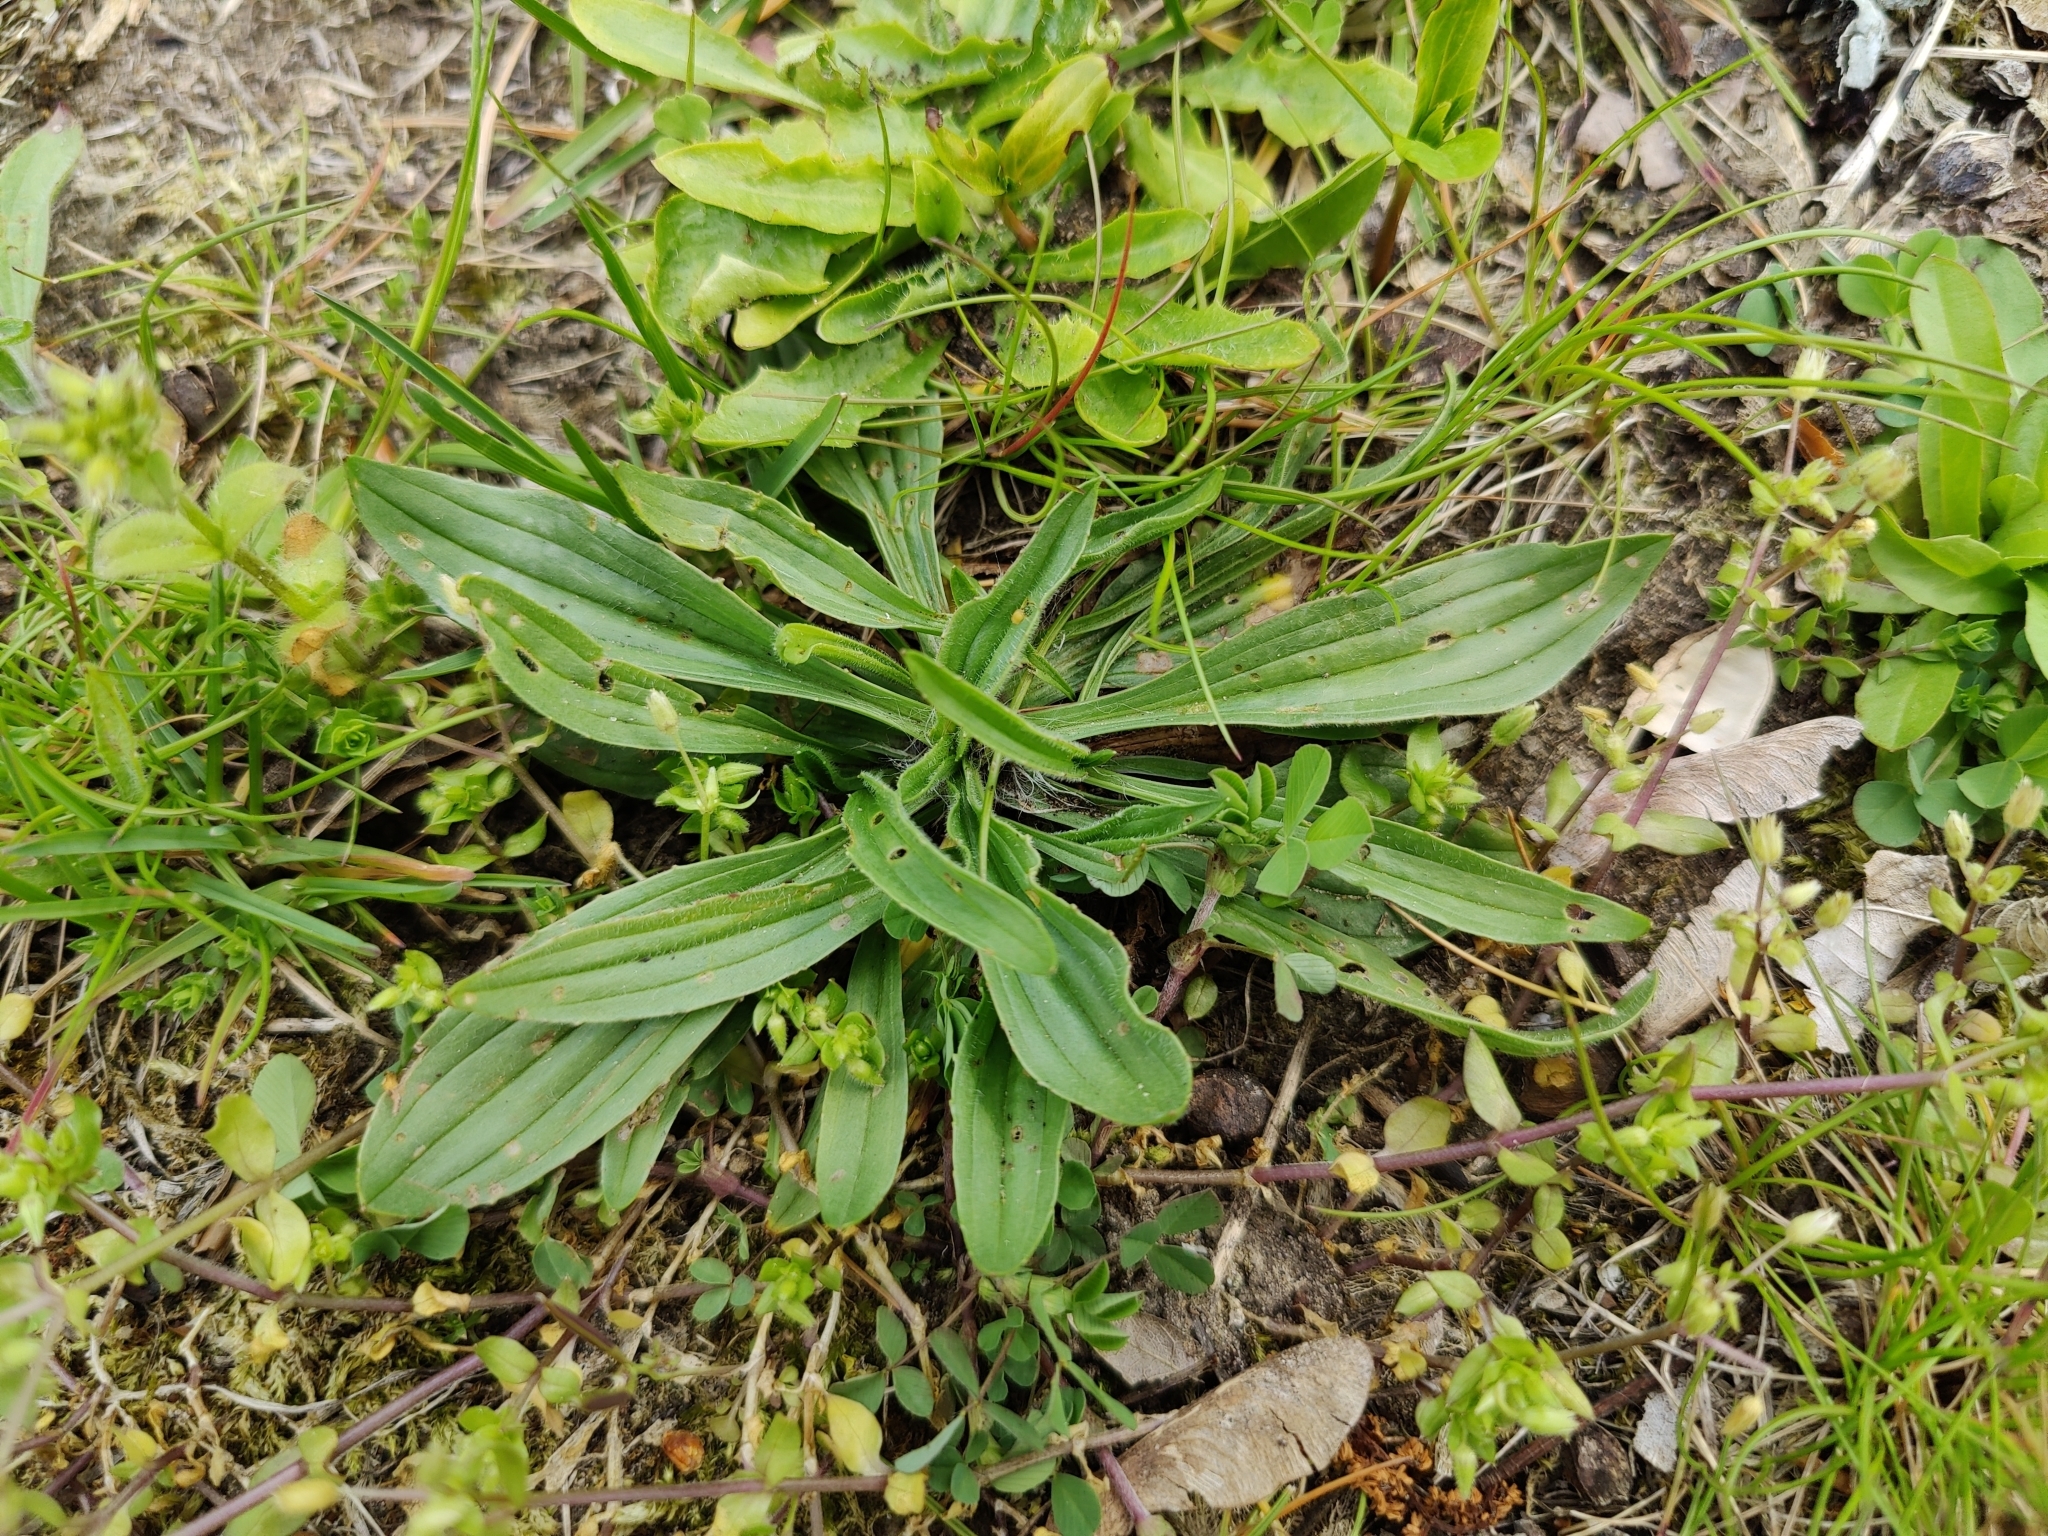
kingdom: Plantae
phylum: Tracheophyta
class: Magnoliopsida
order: Lamiales
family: Plantaginaceae
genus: Plantago
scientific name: Plantago lanceolata
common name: Ribwort plantain
